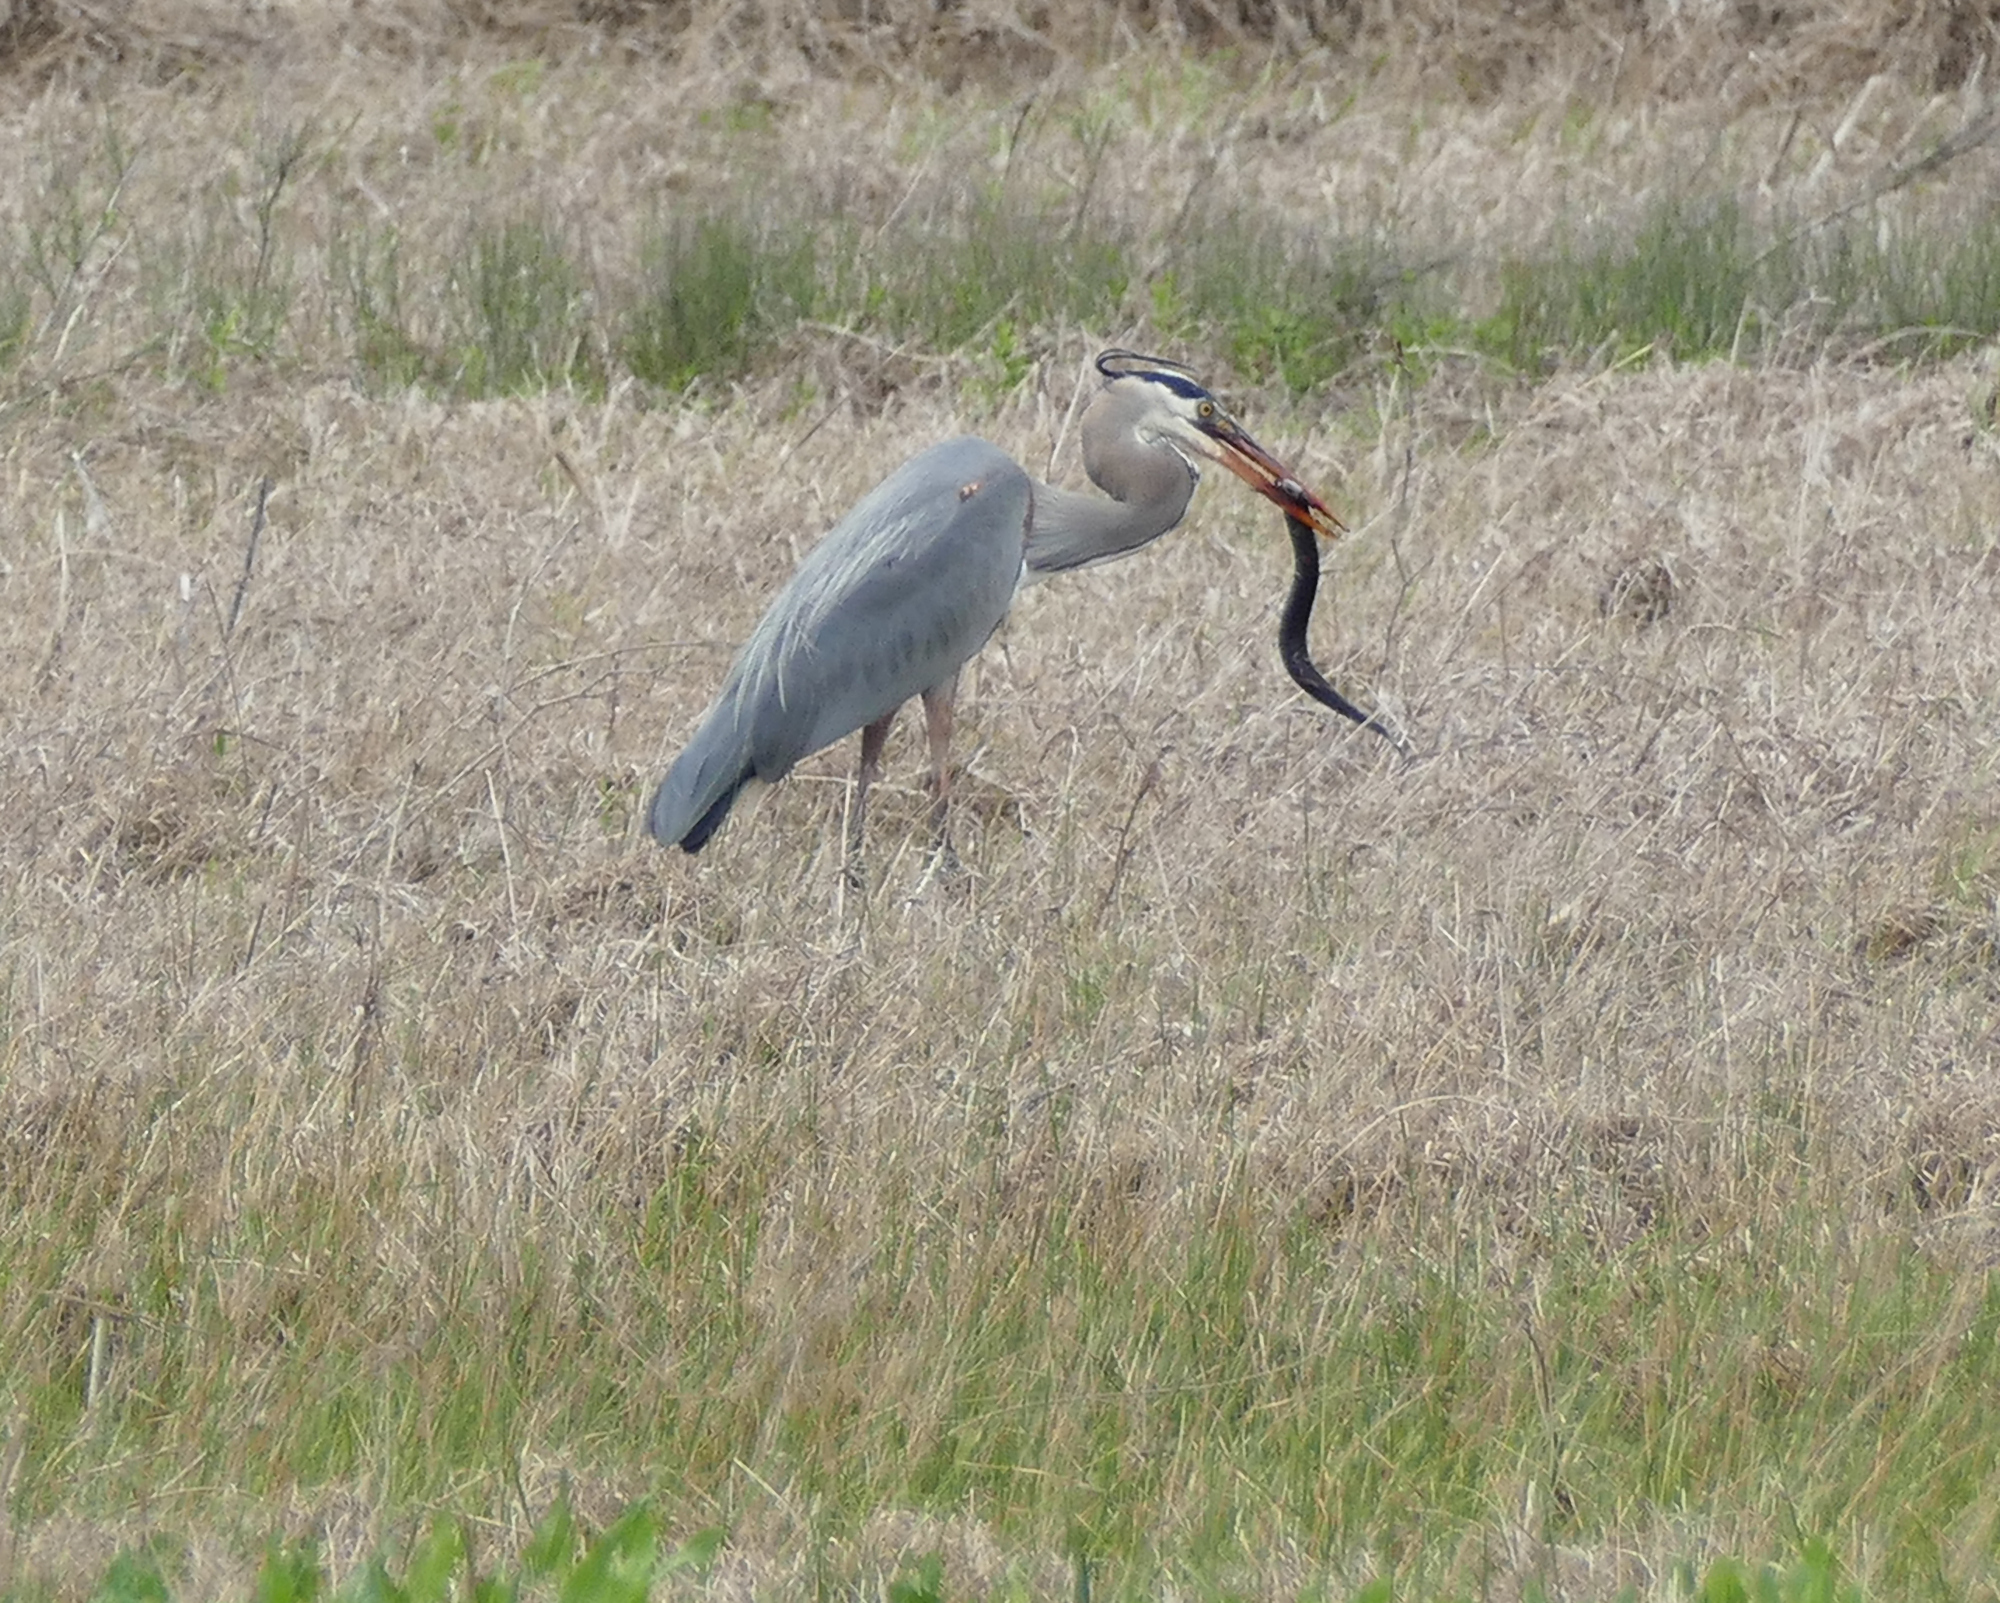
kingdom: Animalia
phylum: Chordata
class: Aves
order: Pelecaniformes
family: Ardeidae
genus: Ardea
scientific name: Ardea herodias
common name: Great blue heron
